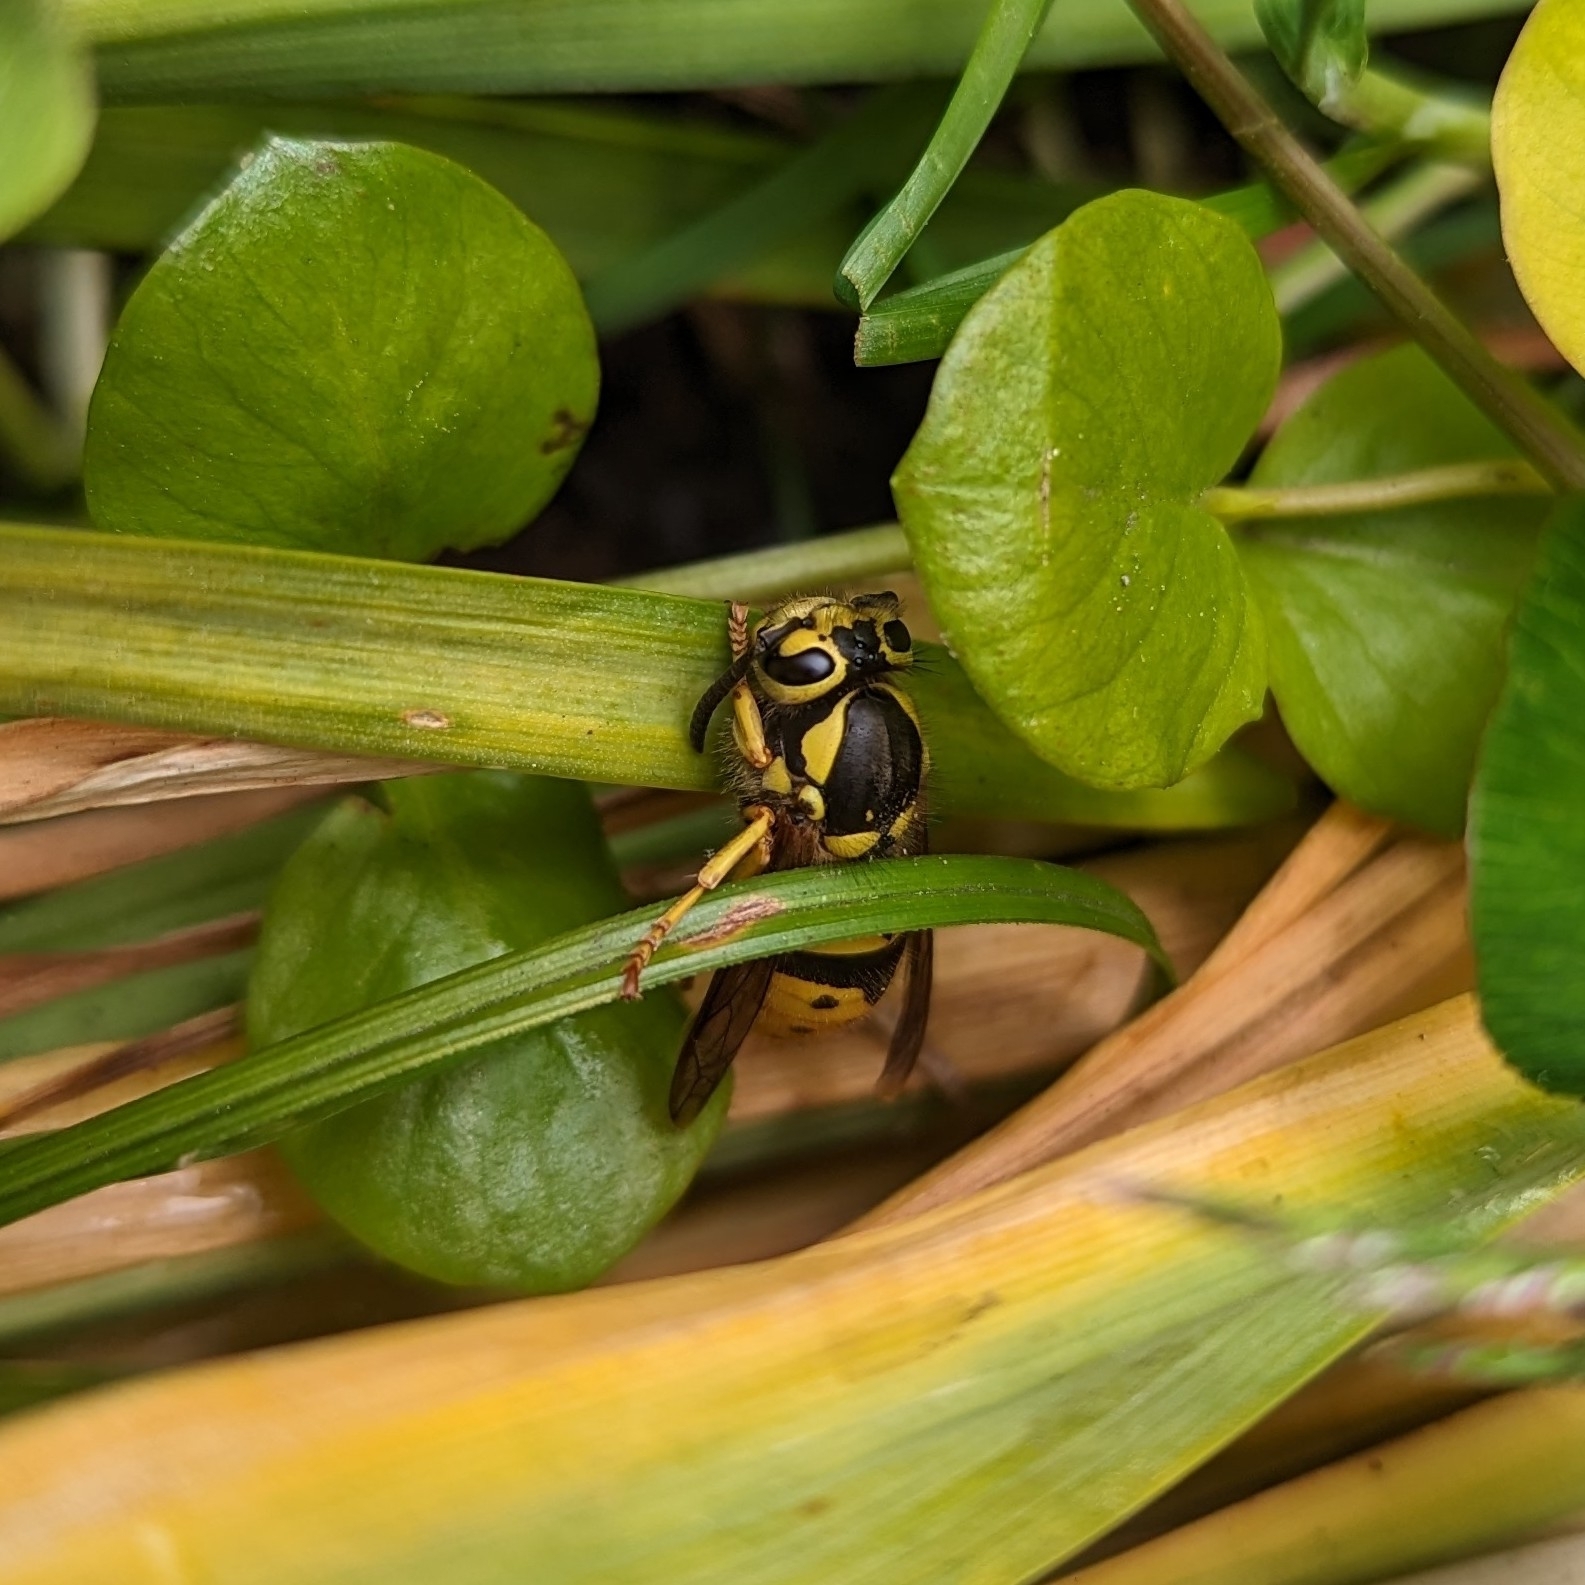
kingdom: Animalia
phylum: Arthropoda
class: Insecta
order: Hymenoptera
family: Vespidae
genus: Vespula
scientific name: Vespula pensylvanica
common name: Western yellowjacket
